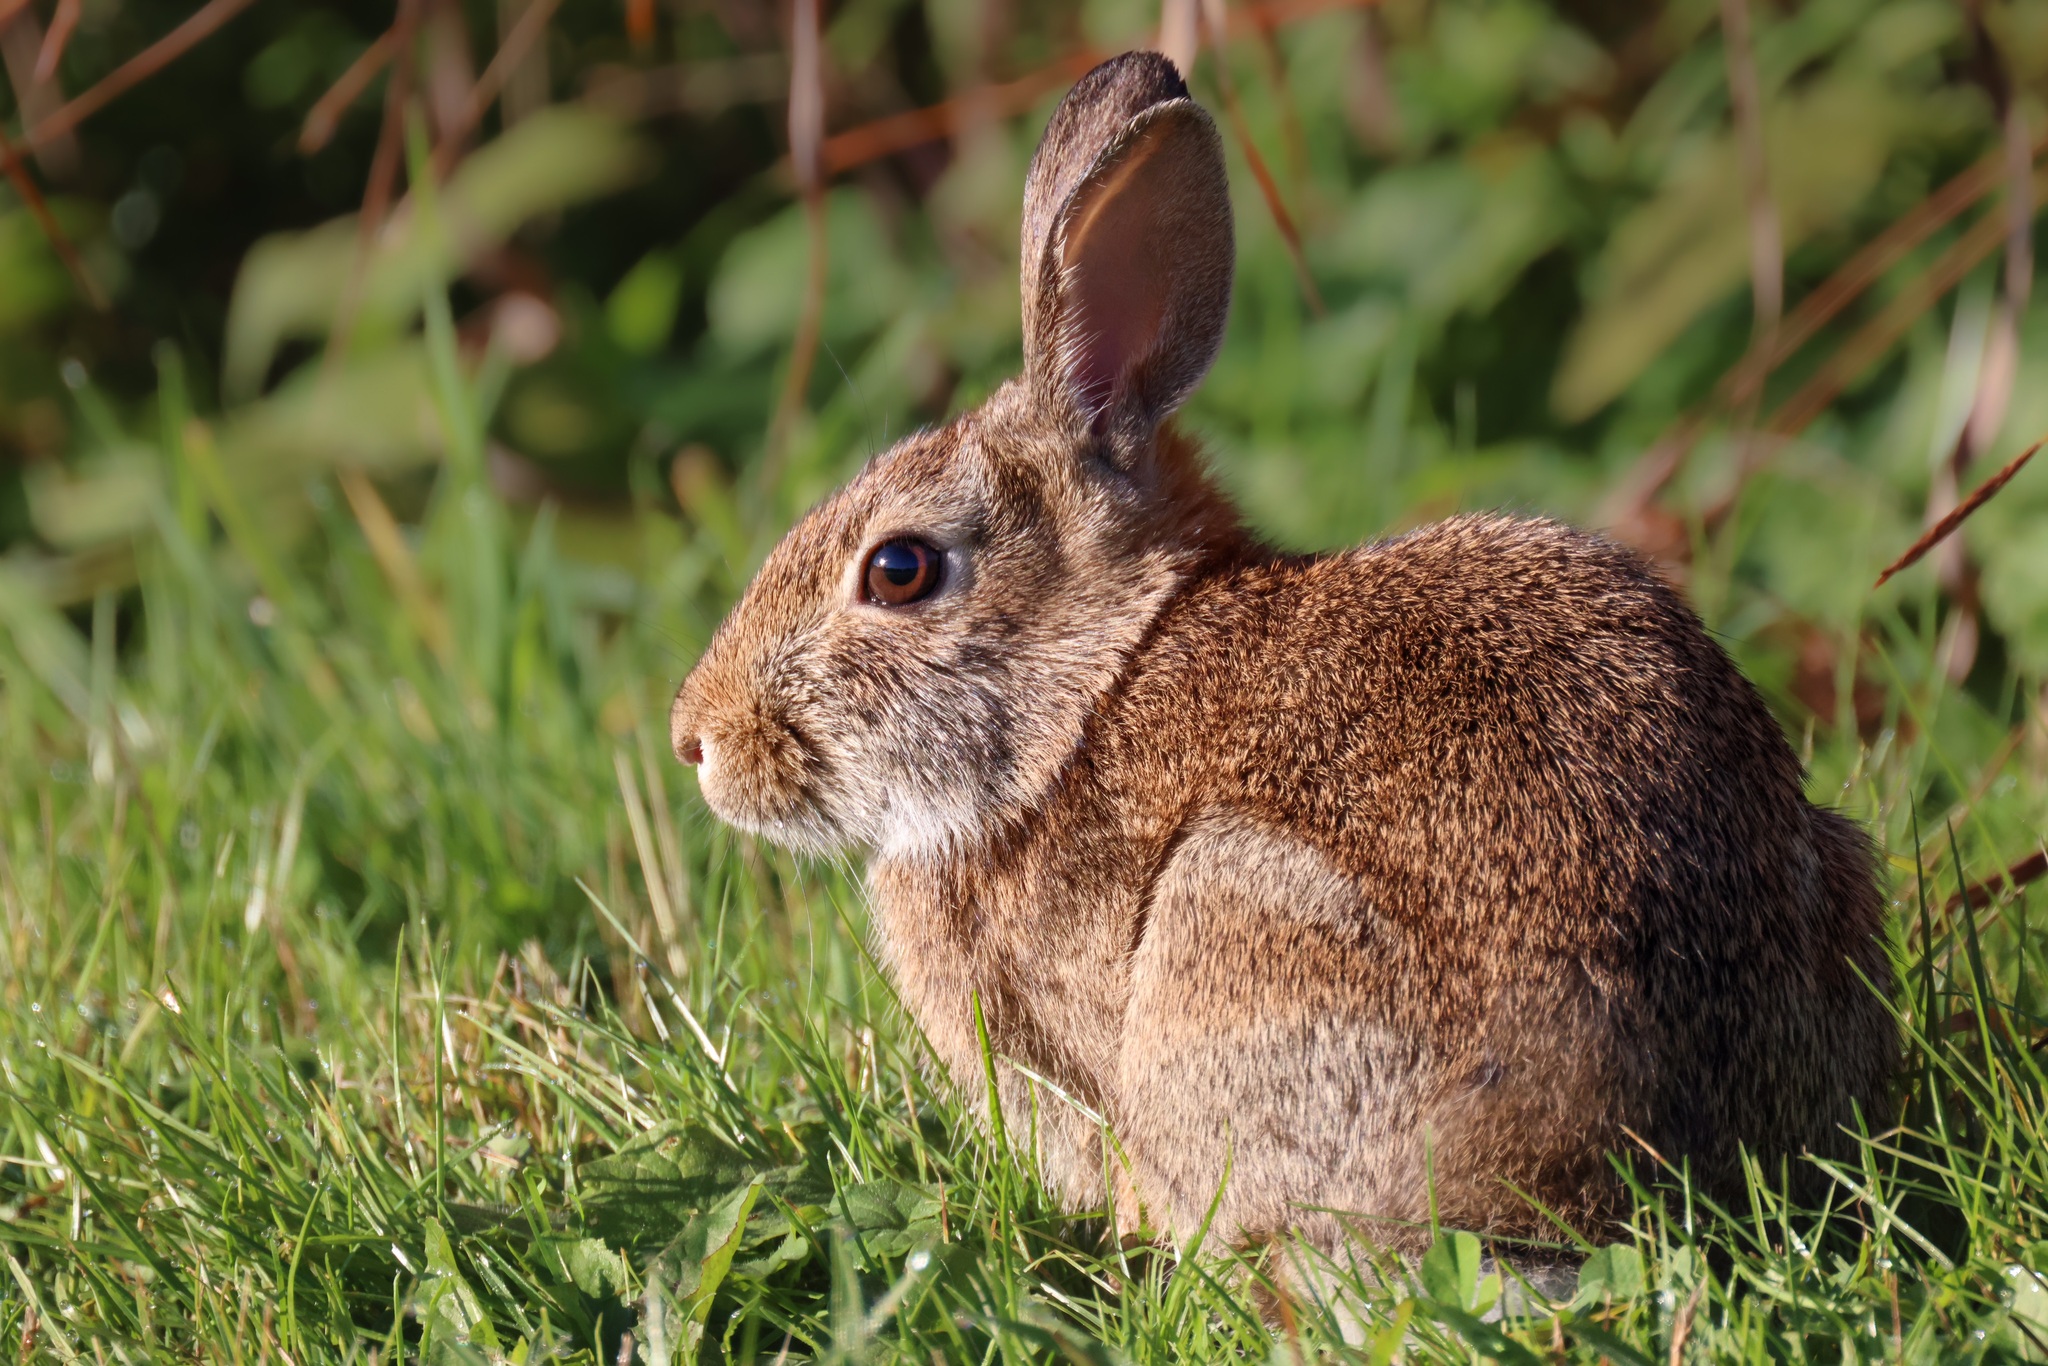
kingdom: Animalia
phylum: Chordata
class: Mammalia
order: Lagomorpha
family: Leporidae
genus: Sylvilagus
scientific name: Sylvilagus floridanus
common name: Eastern cottontail
